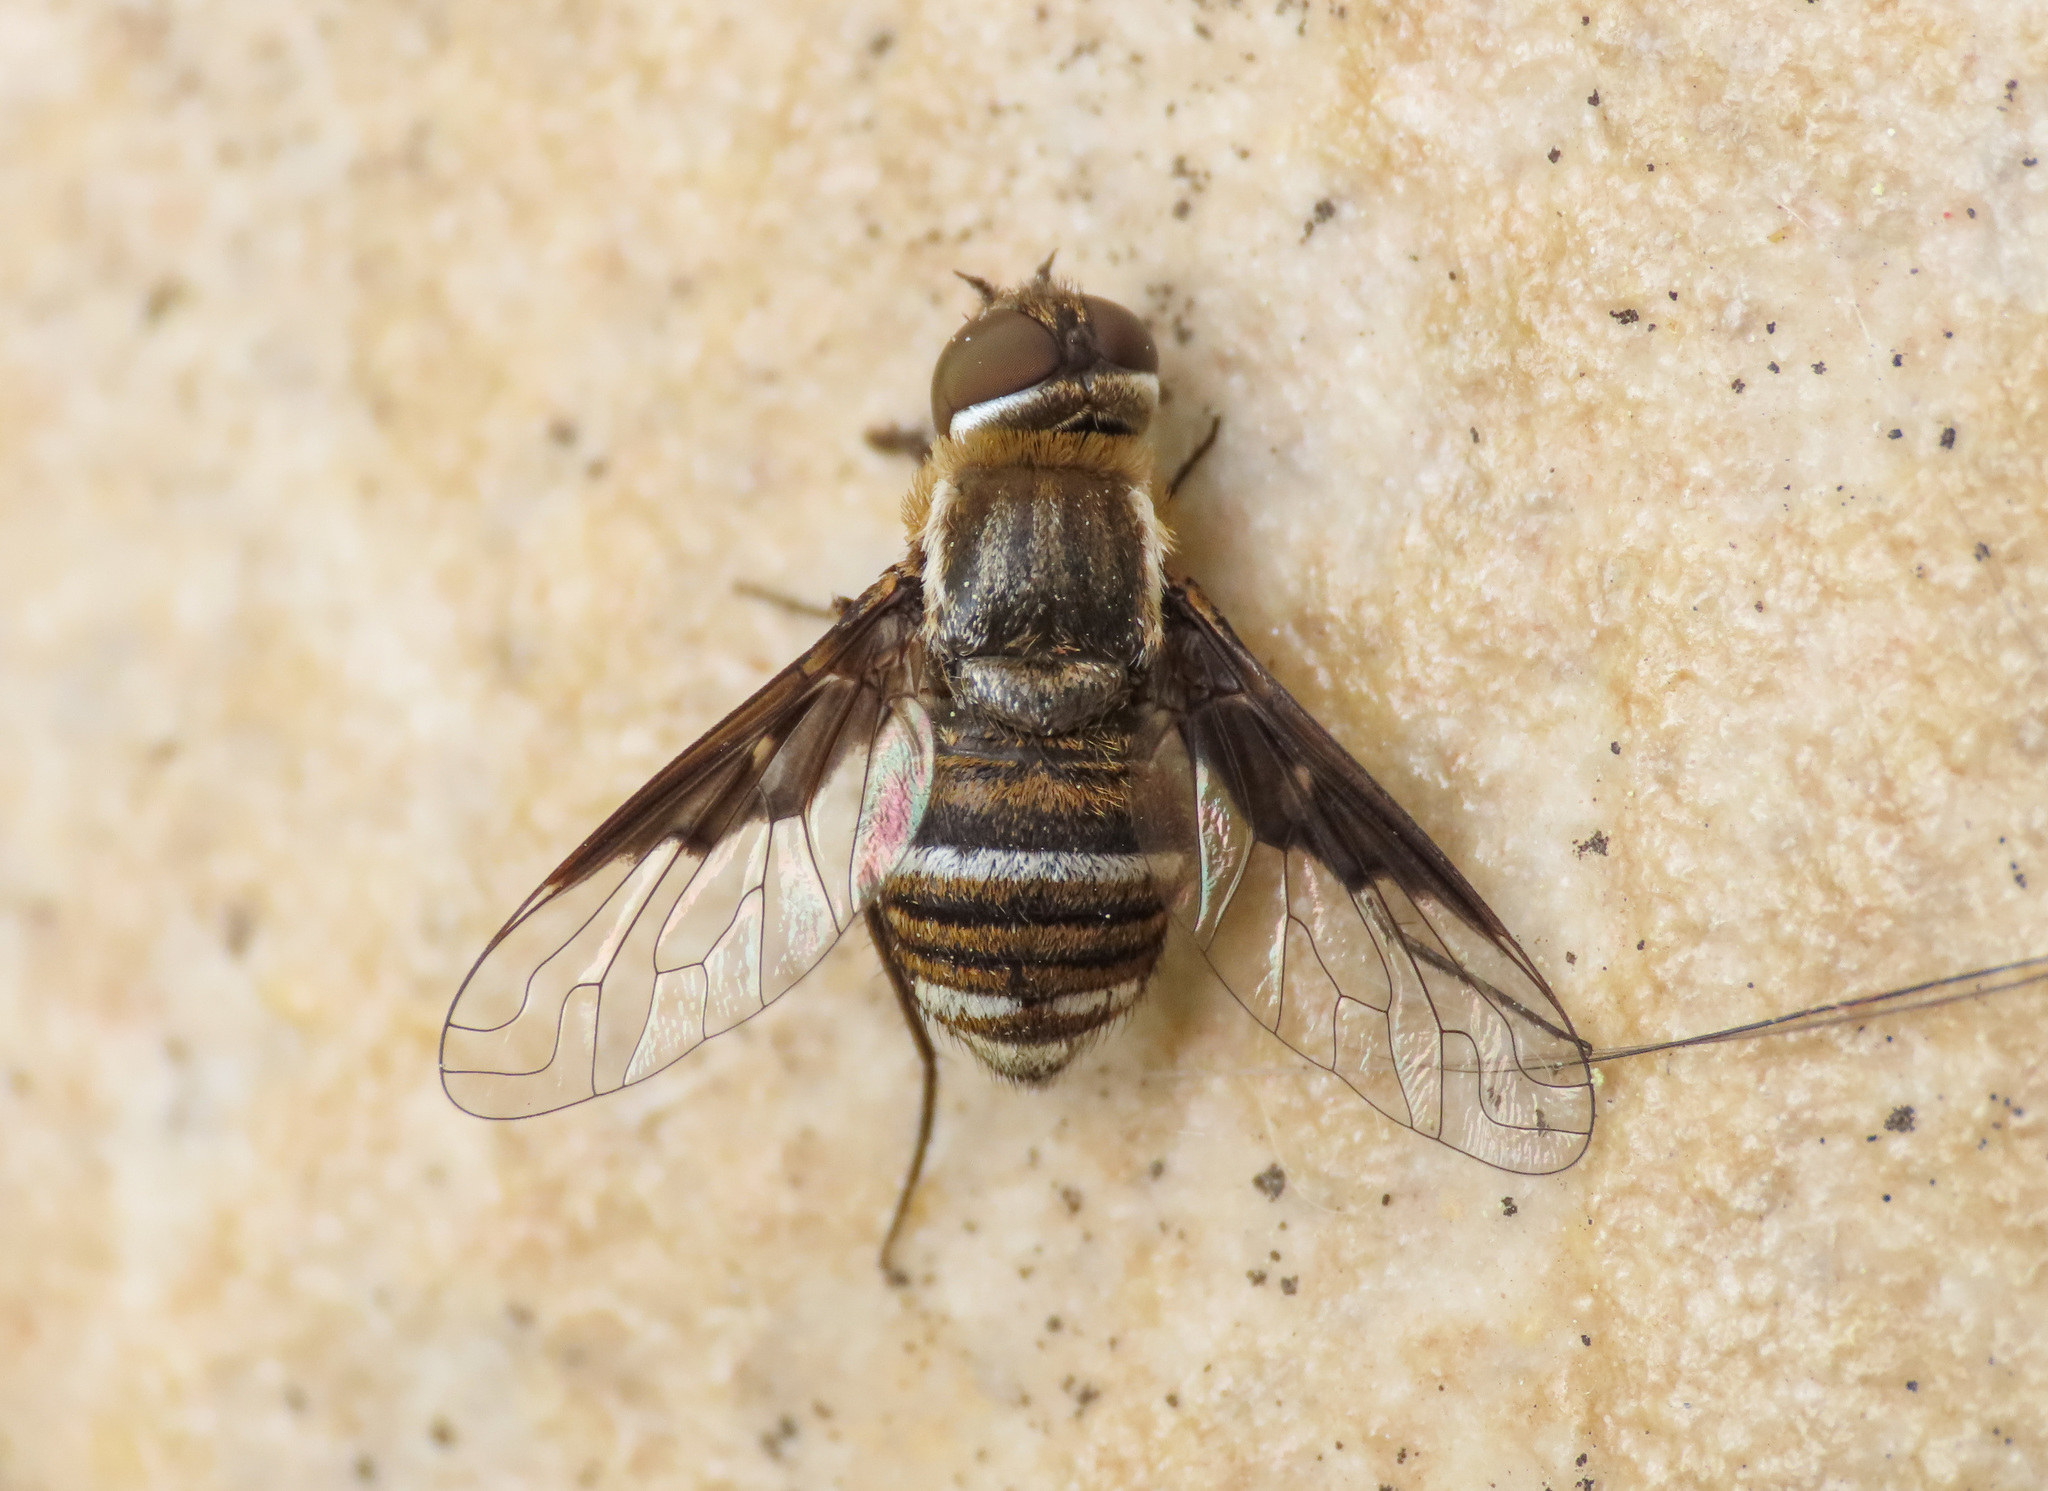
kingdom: Animalia
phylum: Arthropoda
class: Insecta
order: Diptera
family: Bombyliidae
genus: Exhyalanthrax
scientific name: Exhyalanthrax afer
